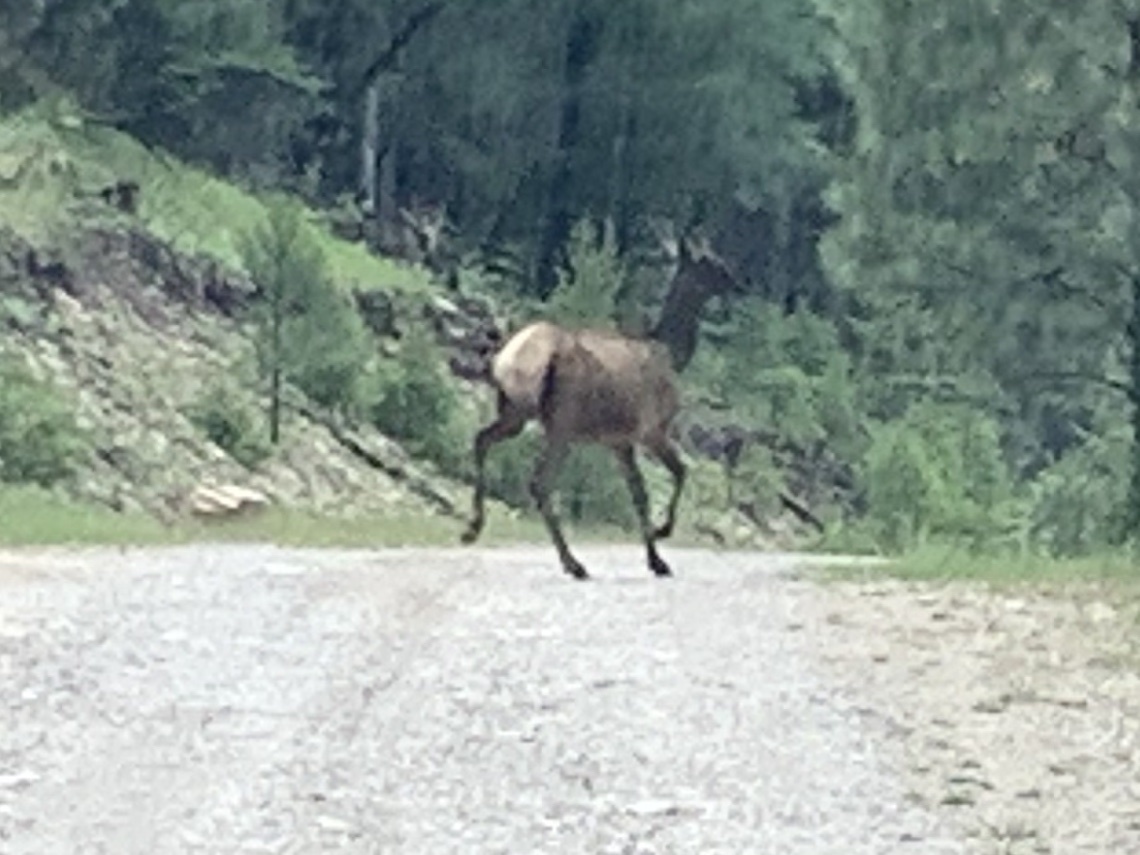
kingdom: Animalia
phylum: Chordata
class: Mammalia
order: Artiodactyla
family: Cervidae
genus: Cervus
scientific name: Cervus elaphus
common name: Red deer
